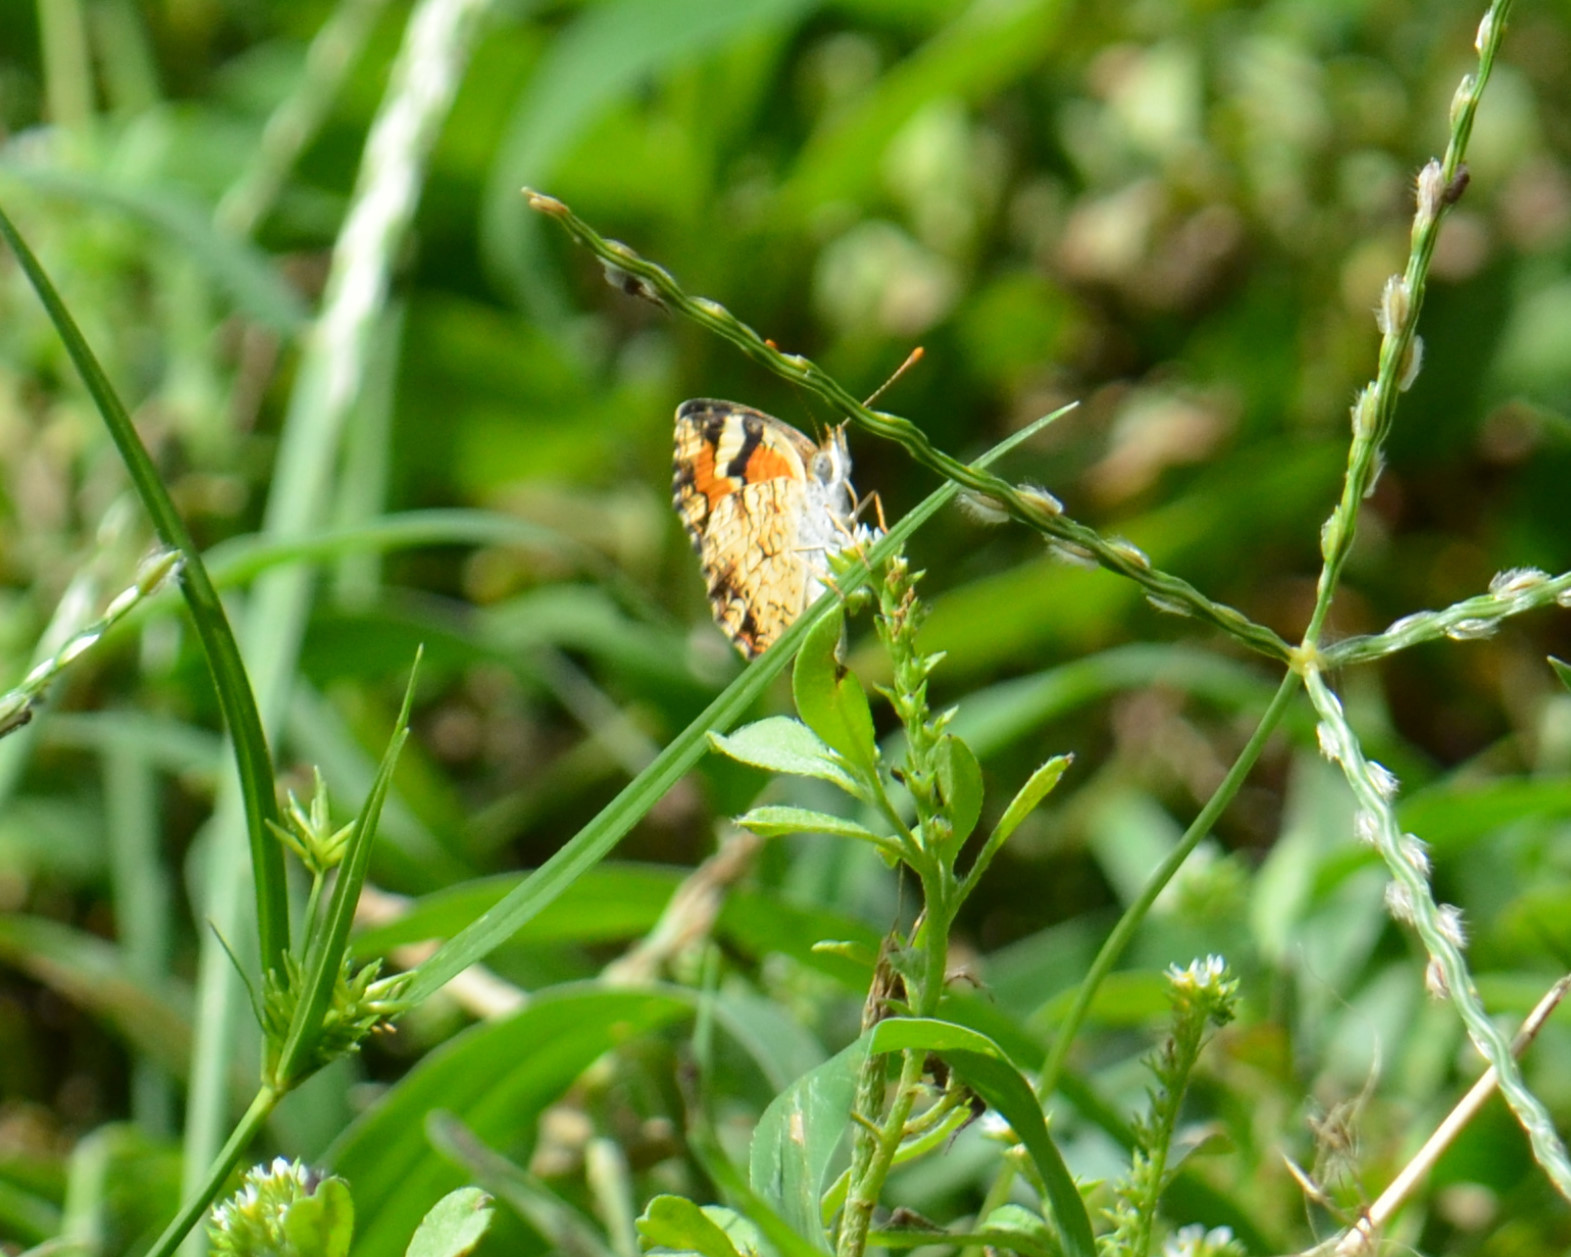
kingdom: Animalia
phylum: Arthropoda
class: Insecta
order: Lepidoptera
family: Nymphalidae
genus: Phyciodes
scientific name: Phyciodes phaon
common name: Phaon crescent
